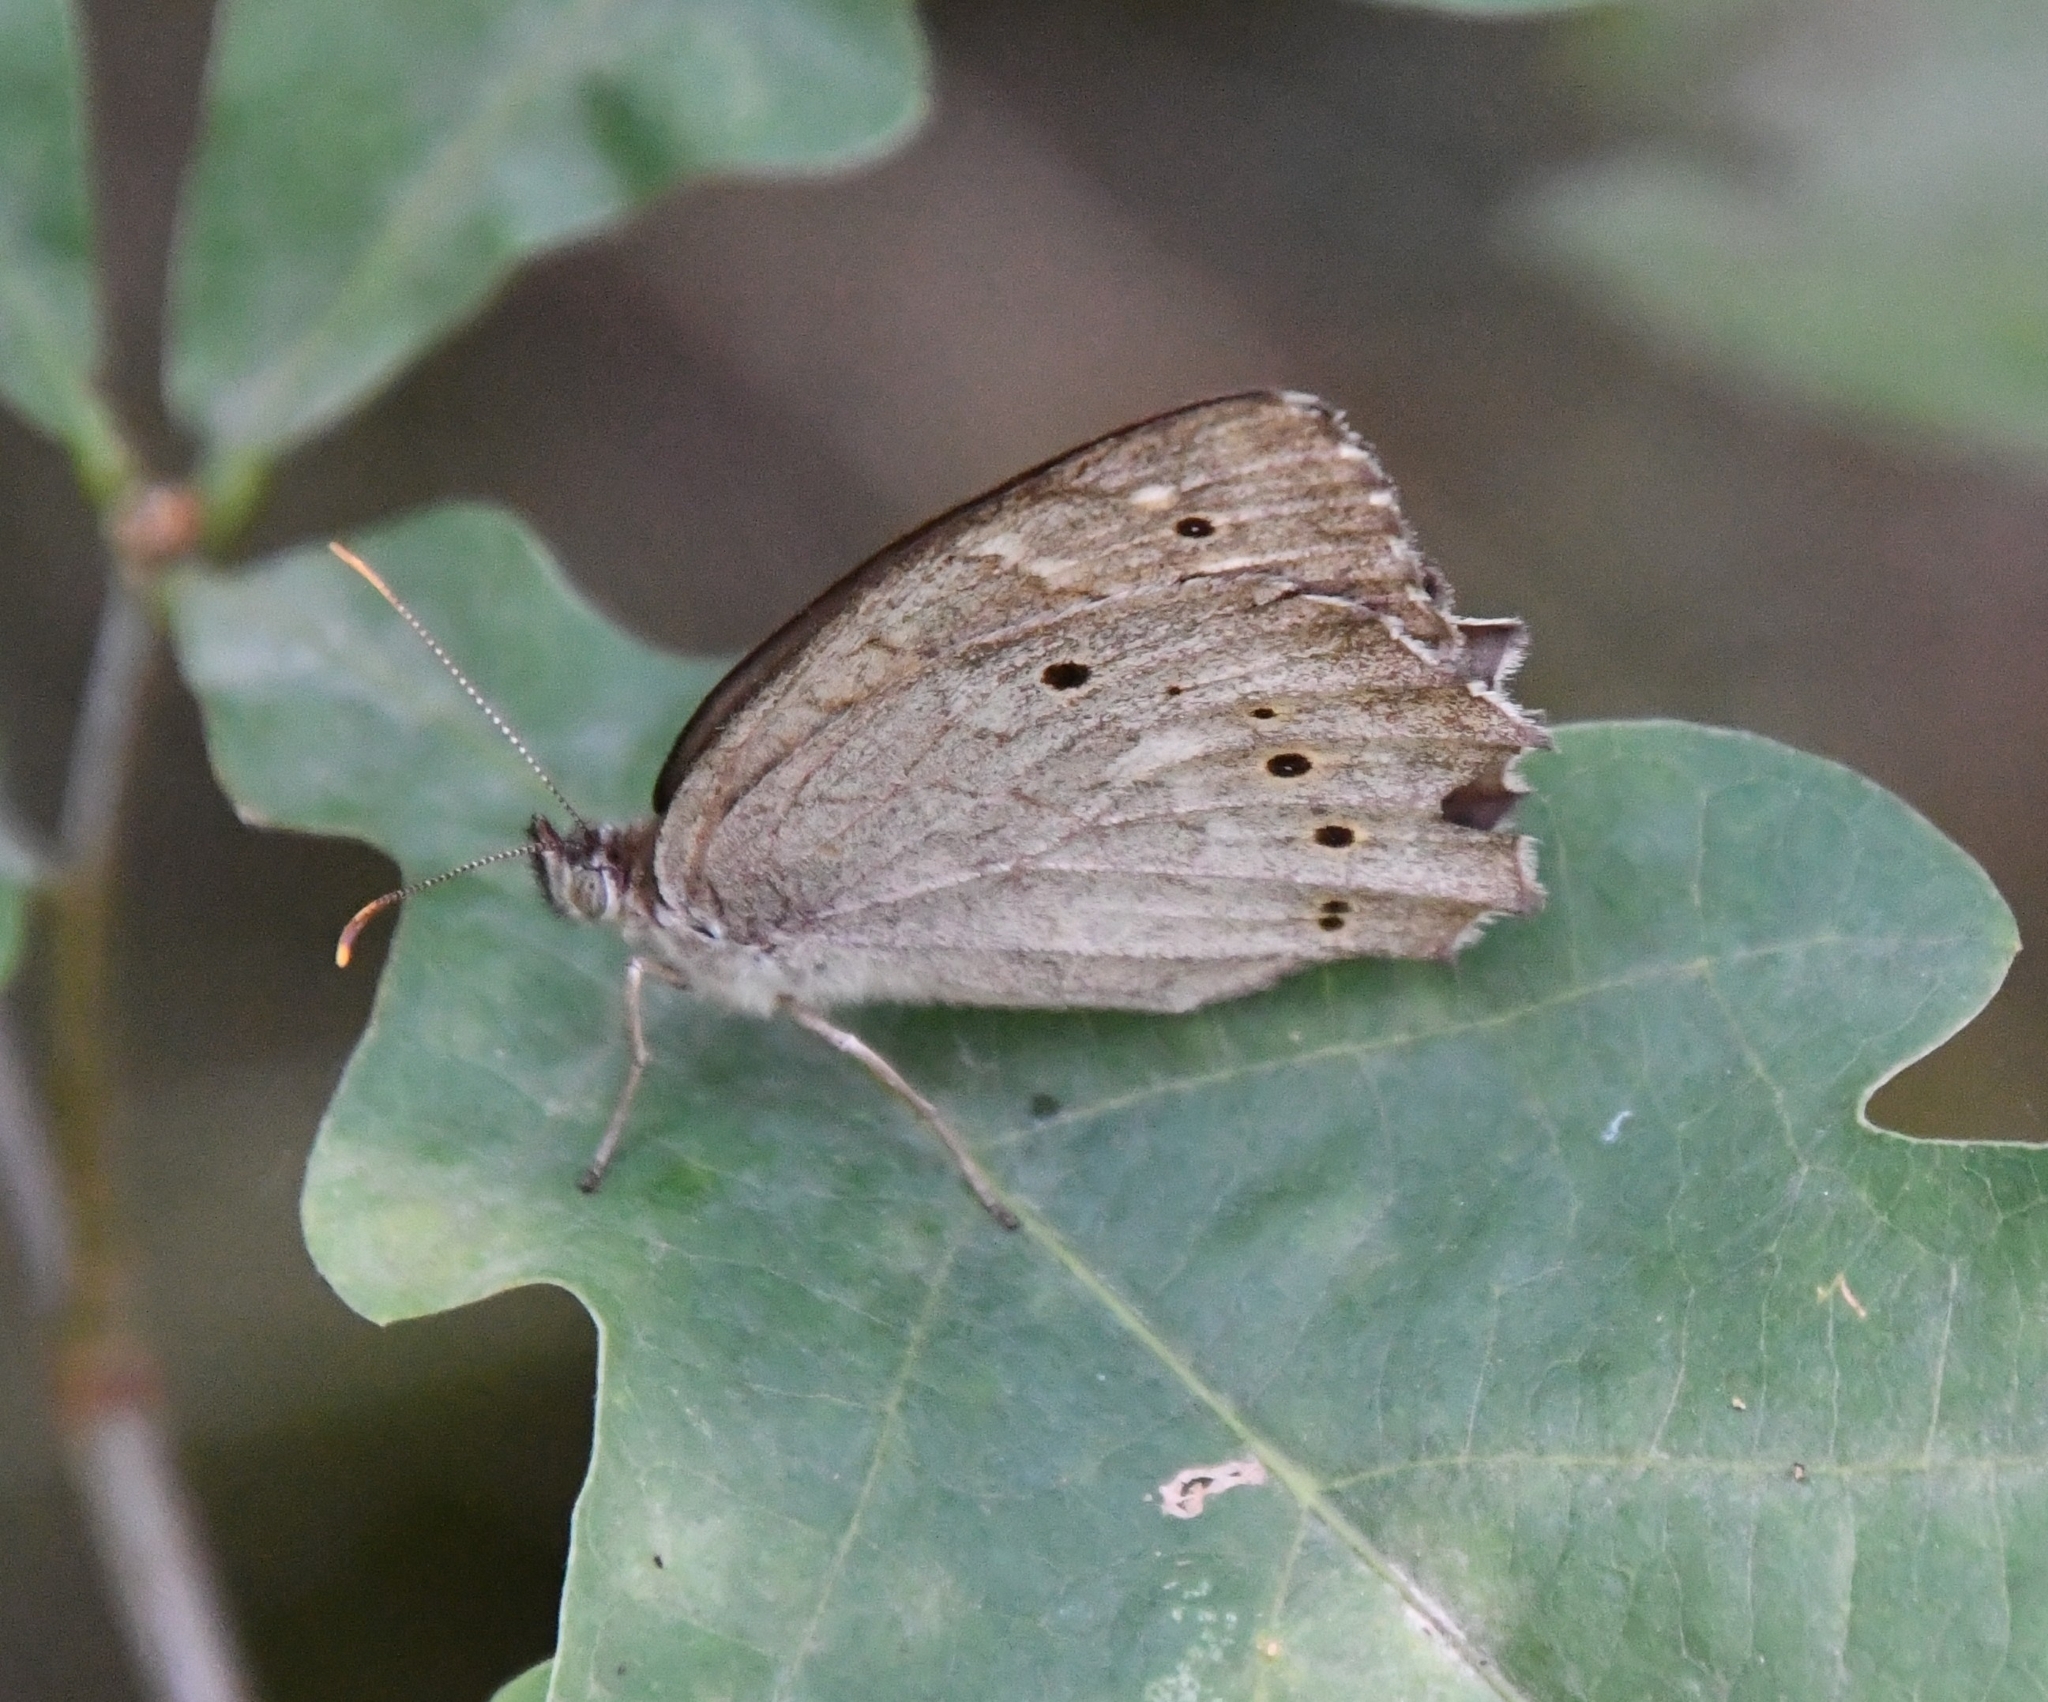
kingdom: Animalia
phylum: Arthropoda
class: Insecta
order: Lepidoptera
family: Nymphalidae
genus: Kirinia
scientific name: Kirinia climene
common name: Lesser lattice brown
